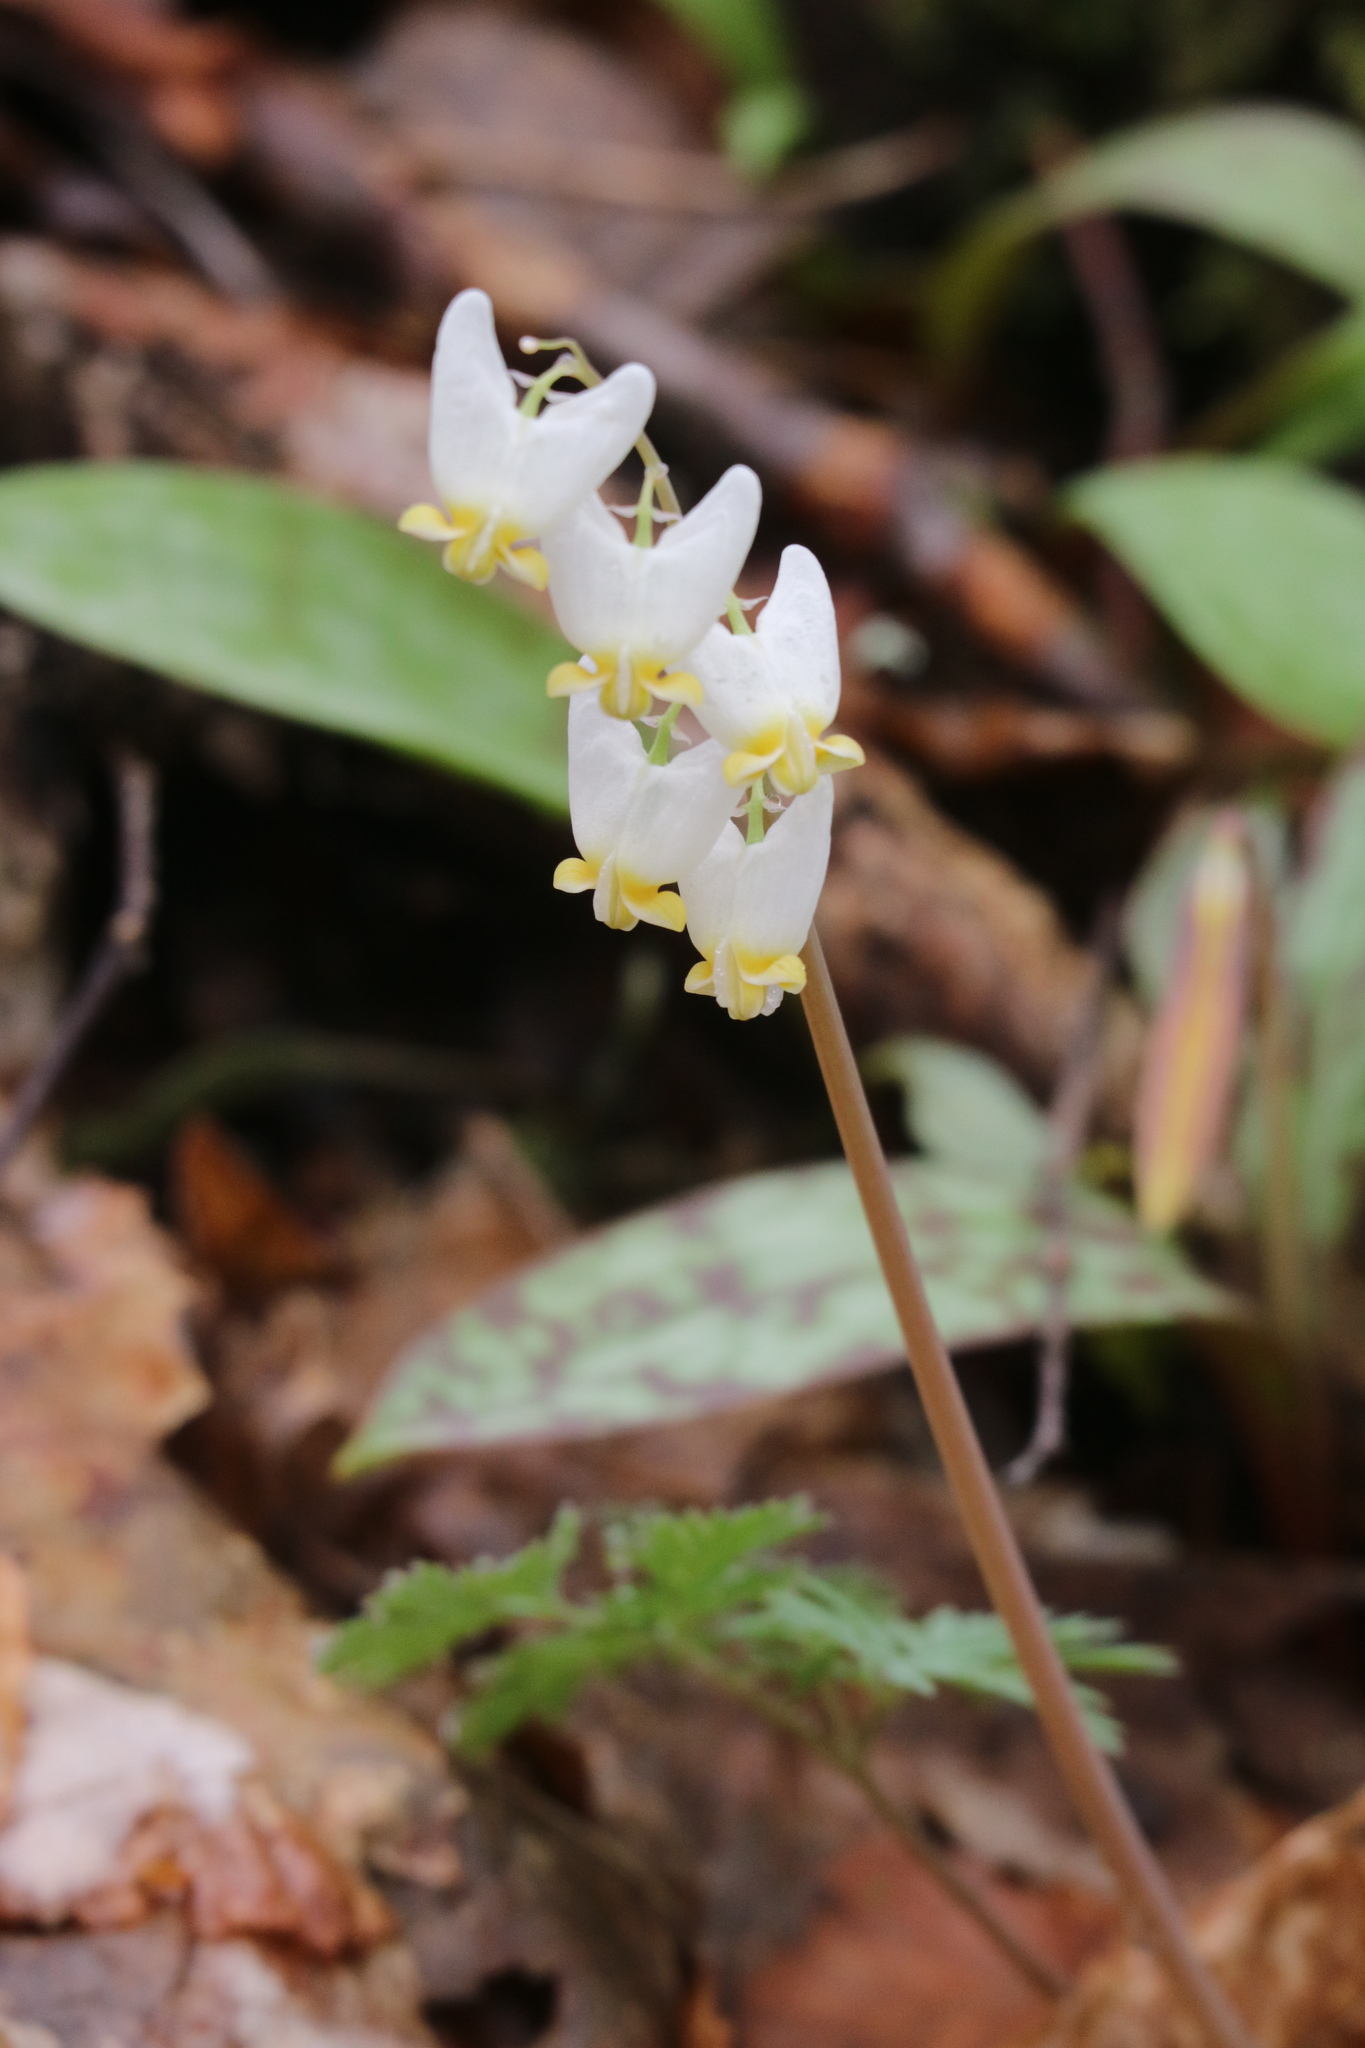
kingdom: Plantae
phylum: Tracheophyta
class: Magnoliopsida
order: Ranunculales
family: Papaveraceae
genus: Dicentra
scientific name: Dicentra cucullaria
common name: Dutchman's breeches
